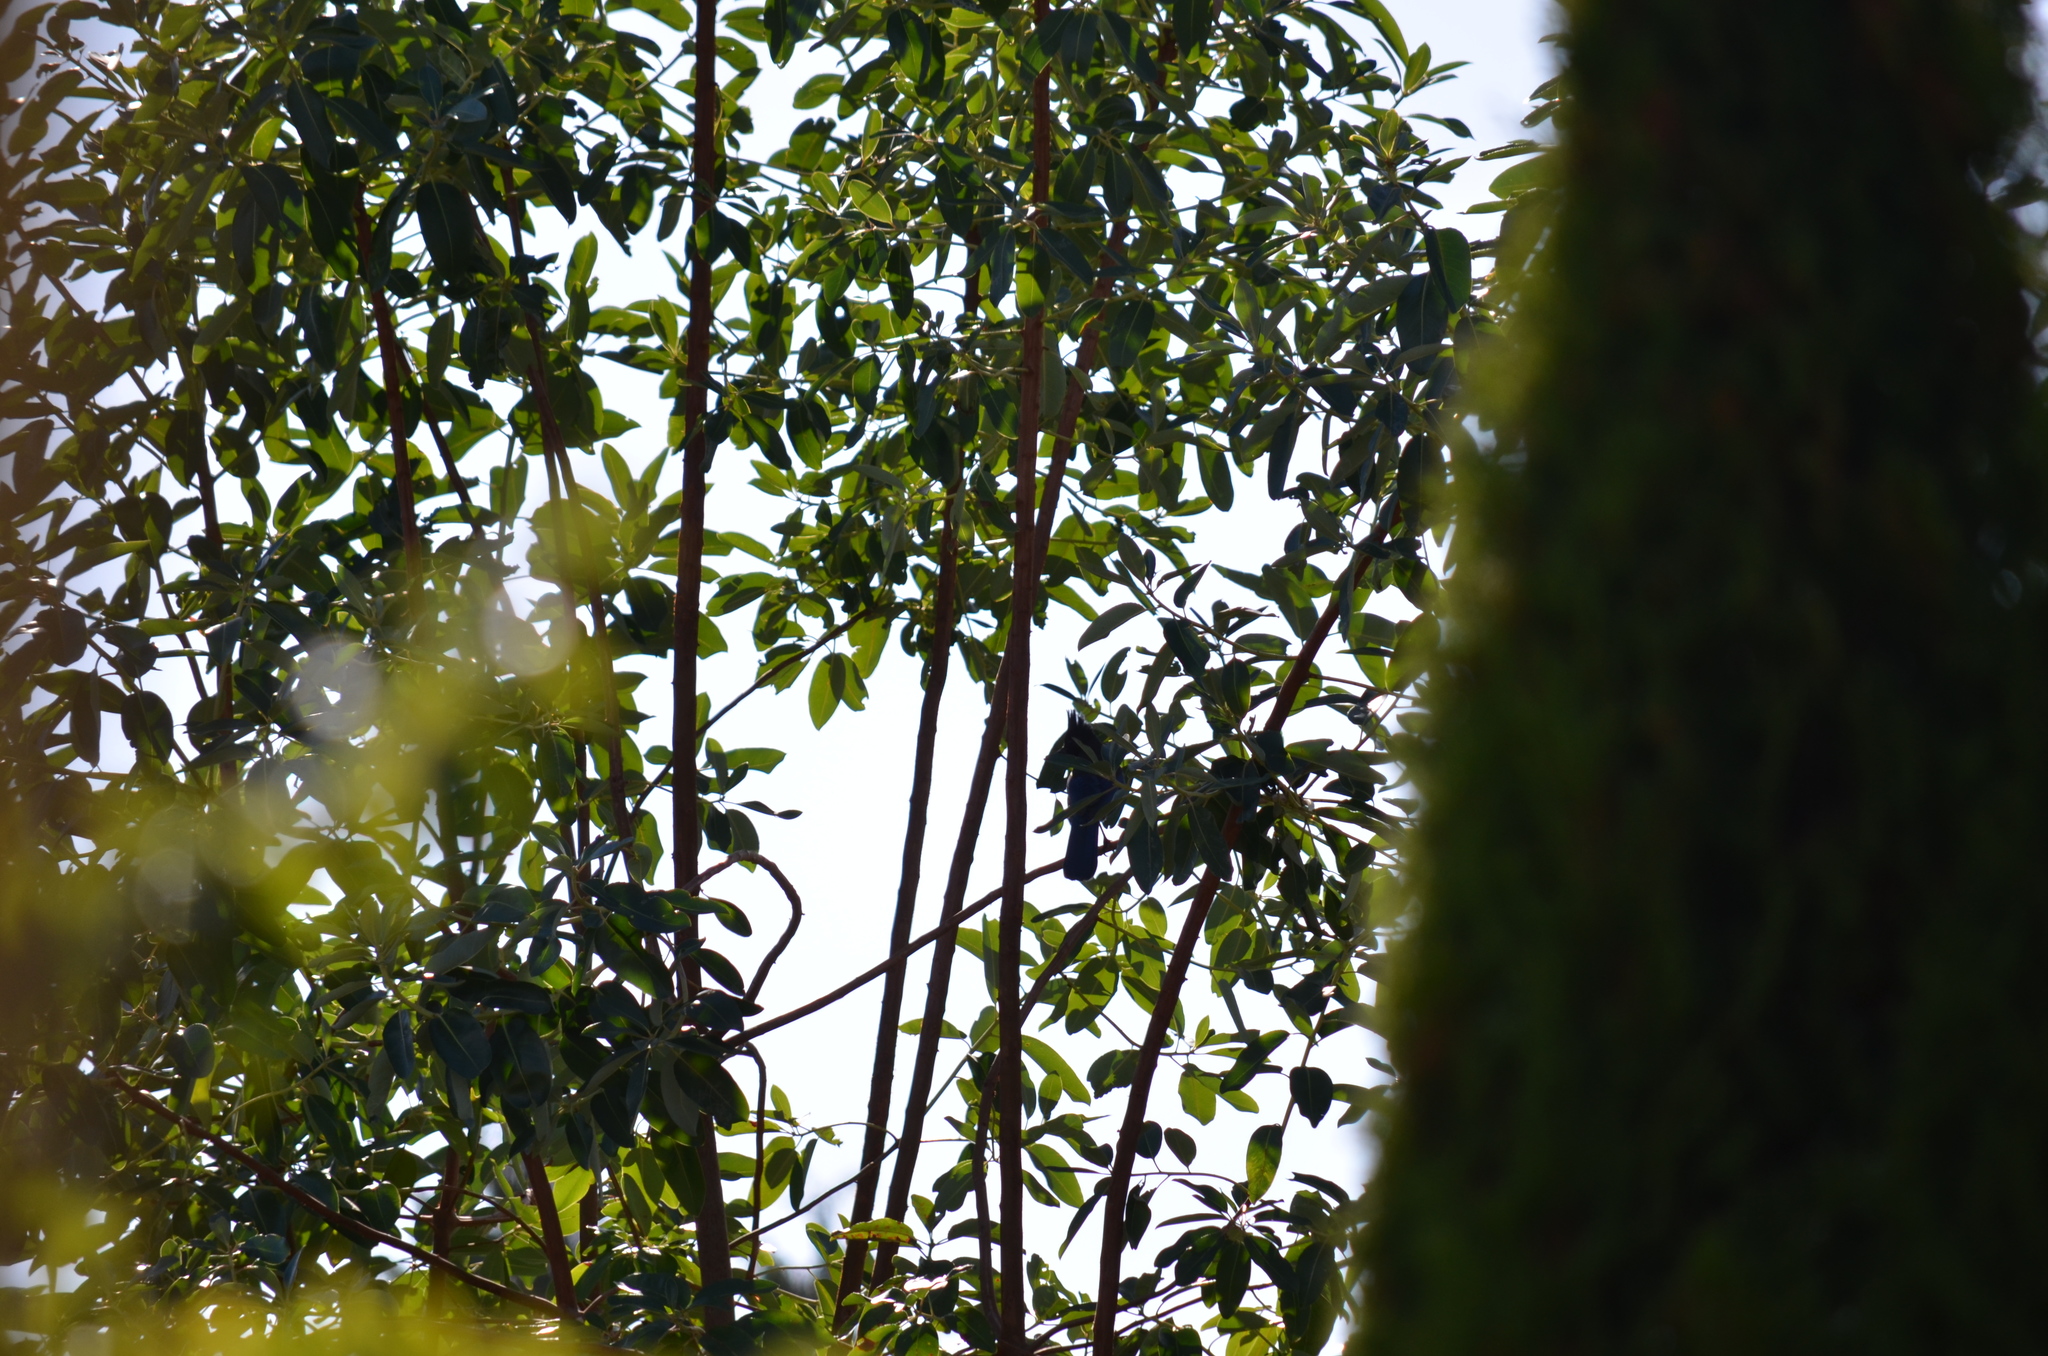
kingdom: Animalia
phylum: Chordata
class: Aves
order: Passeriformes
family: Corvidae
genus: Cyanocitta
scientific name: Cyanocitta stelleri
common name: Steller's jay
